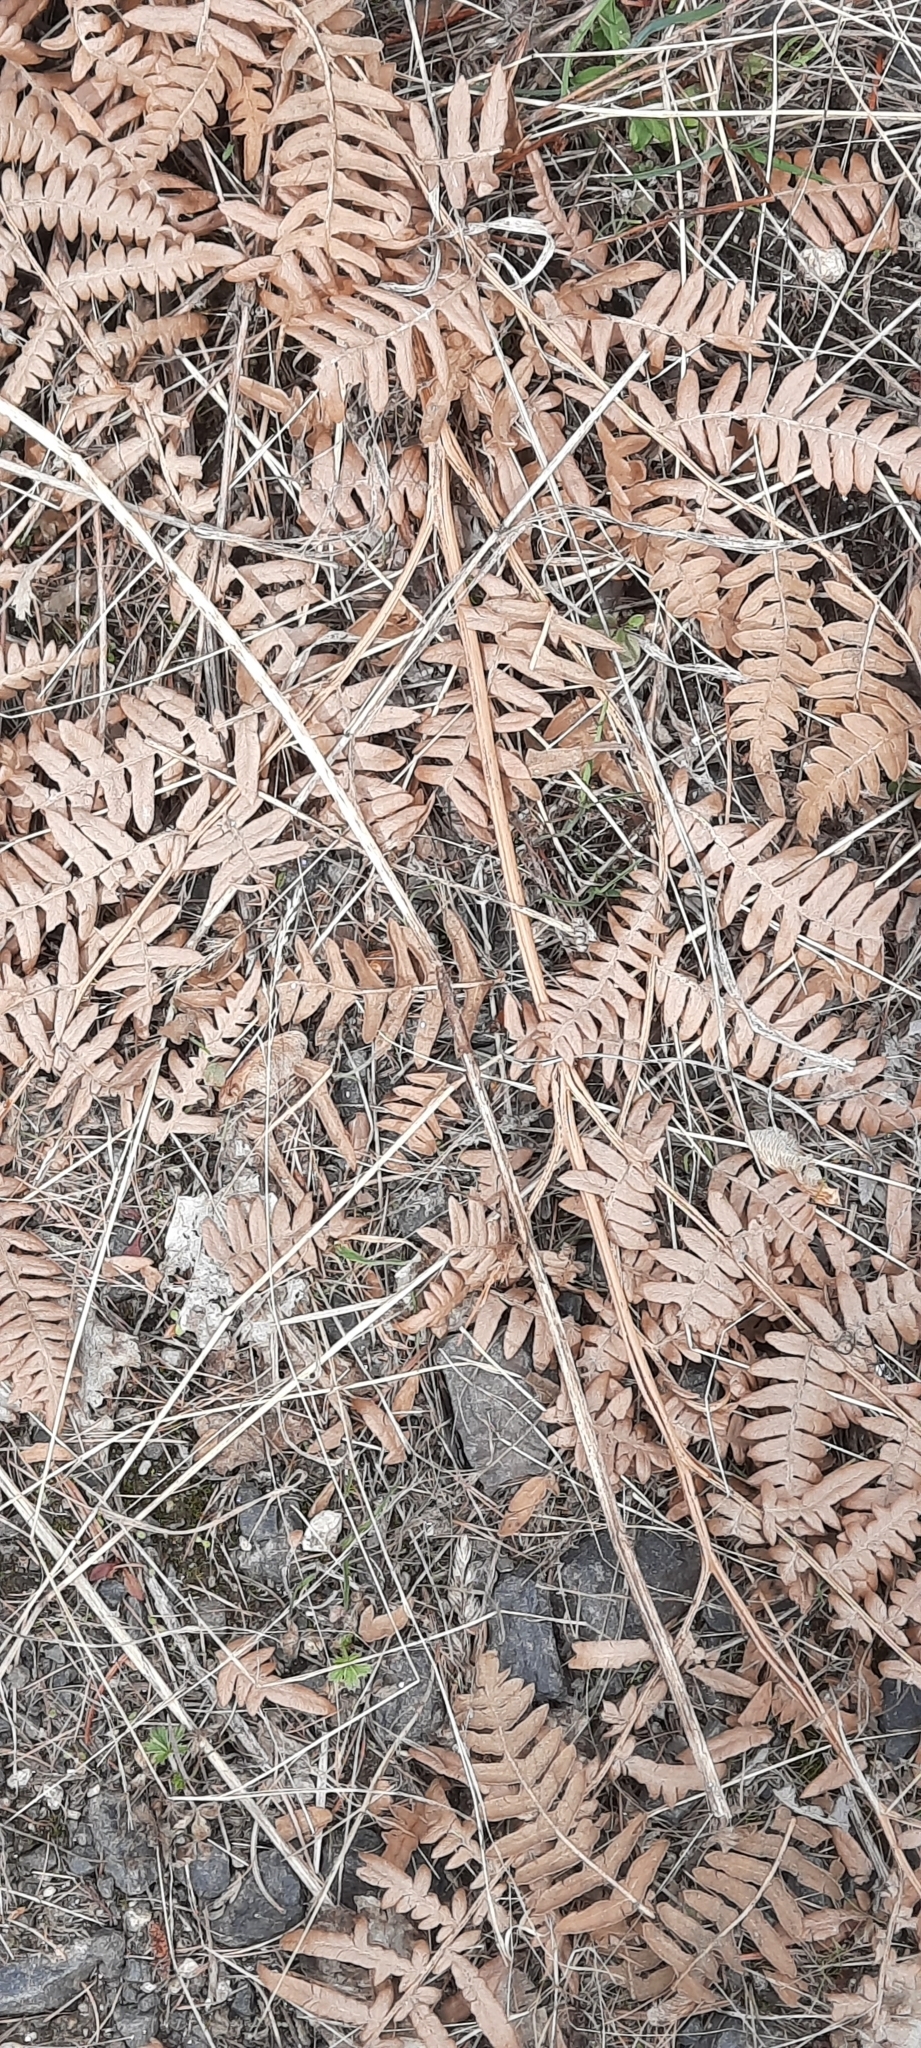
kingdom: Plantae
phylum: Tracheophyta
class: Polypodiopsida
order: Polypodiales
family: Dennstaedtiaceae
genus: Pteridium
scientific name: Pteridium aquilinum
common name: Bracken
